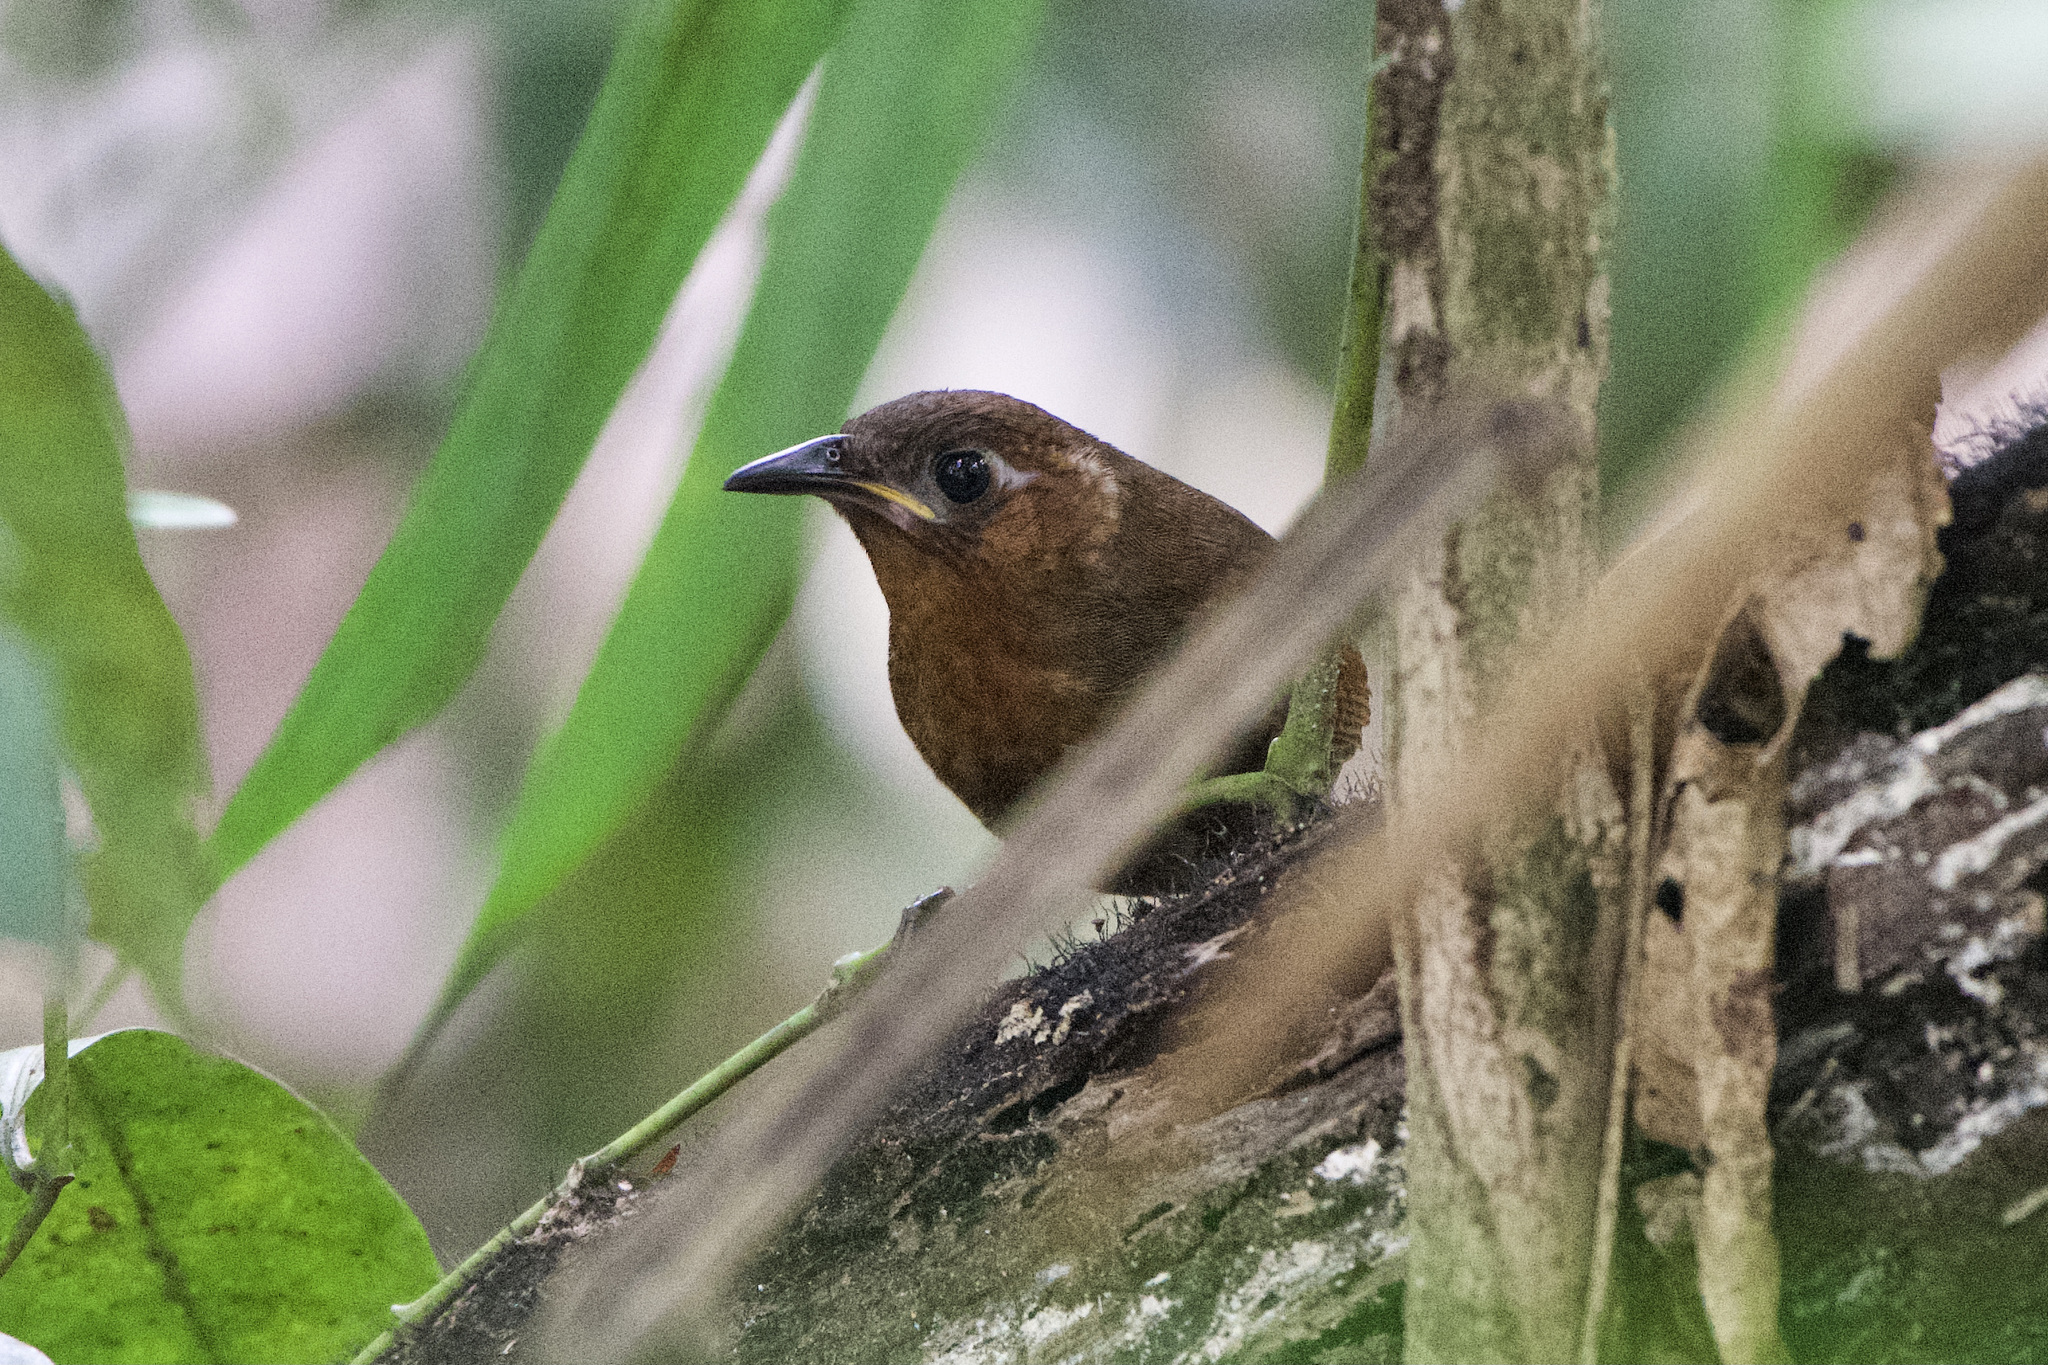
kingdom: Animalia
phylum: Chordata
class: Aves
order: Passeriformes
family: Troglodytidae
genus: Cyphorhinus
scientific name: Cyphorhinus phaeocephalus
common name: Song wren
